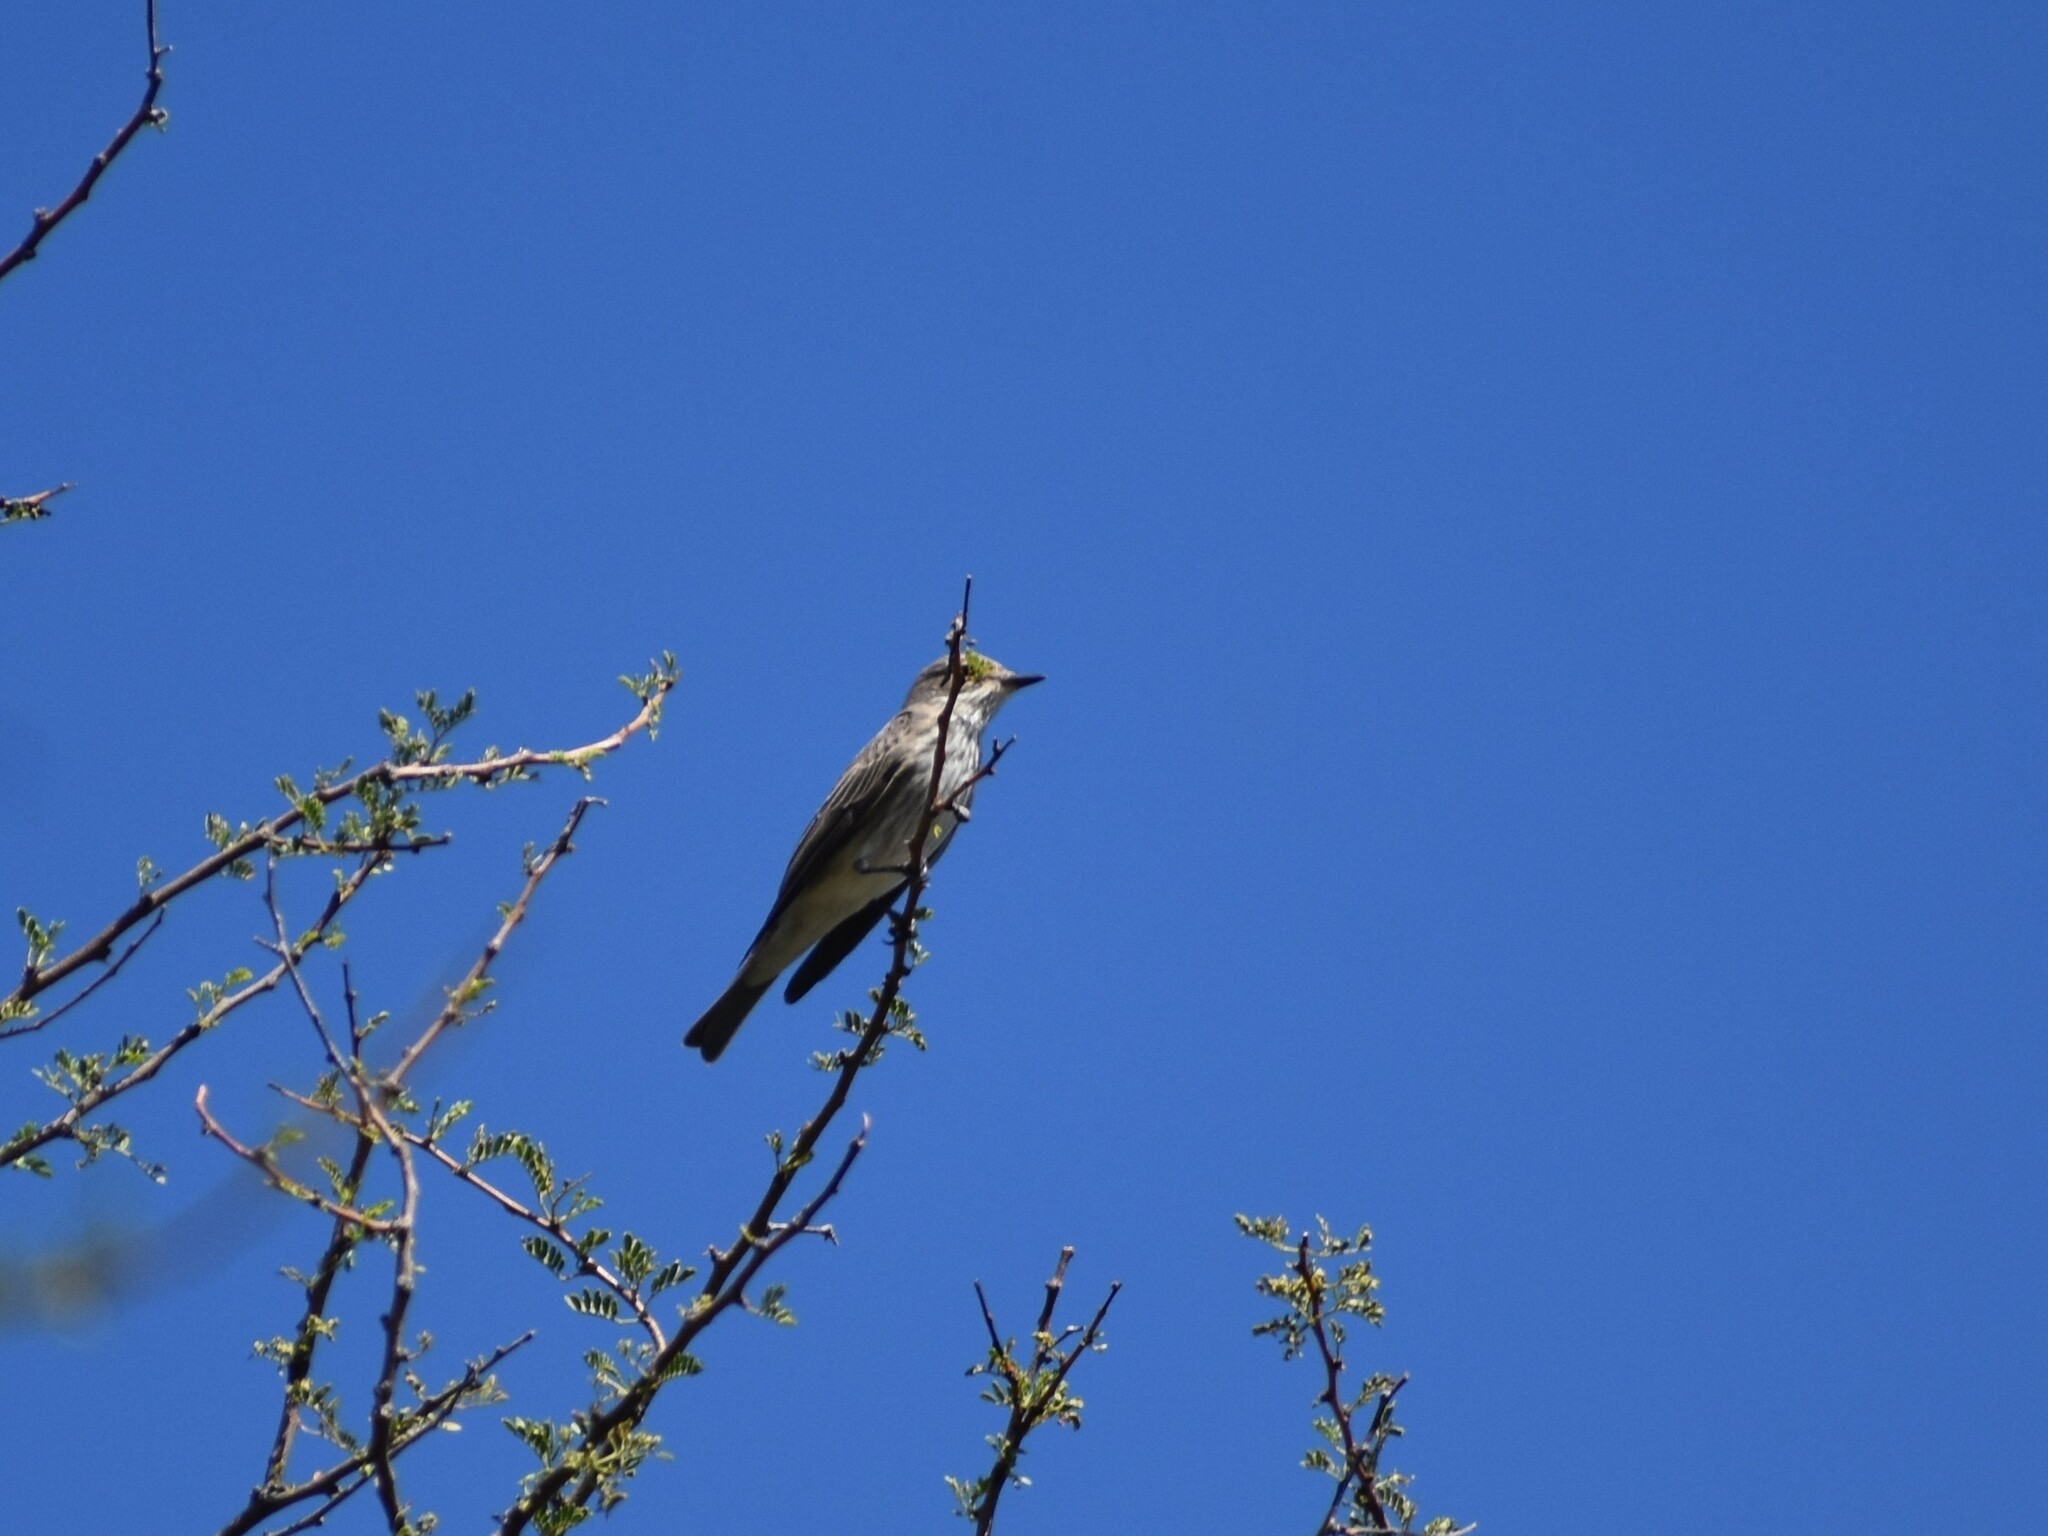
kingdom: Animalia
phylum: Chordata
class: Aves
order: Passeriformes
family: Muscicapidae
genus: Muscicapa
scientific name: Muscicapa striata
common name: Spotted flycatcher
